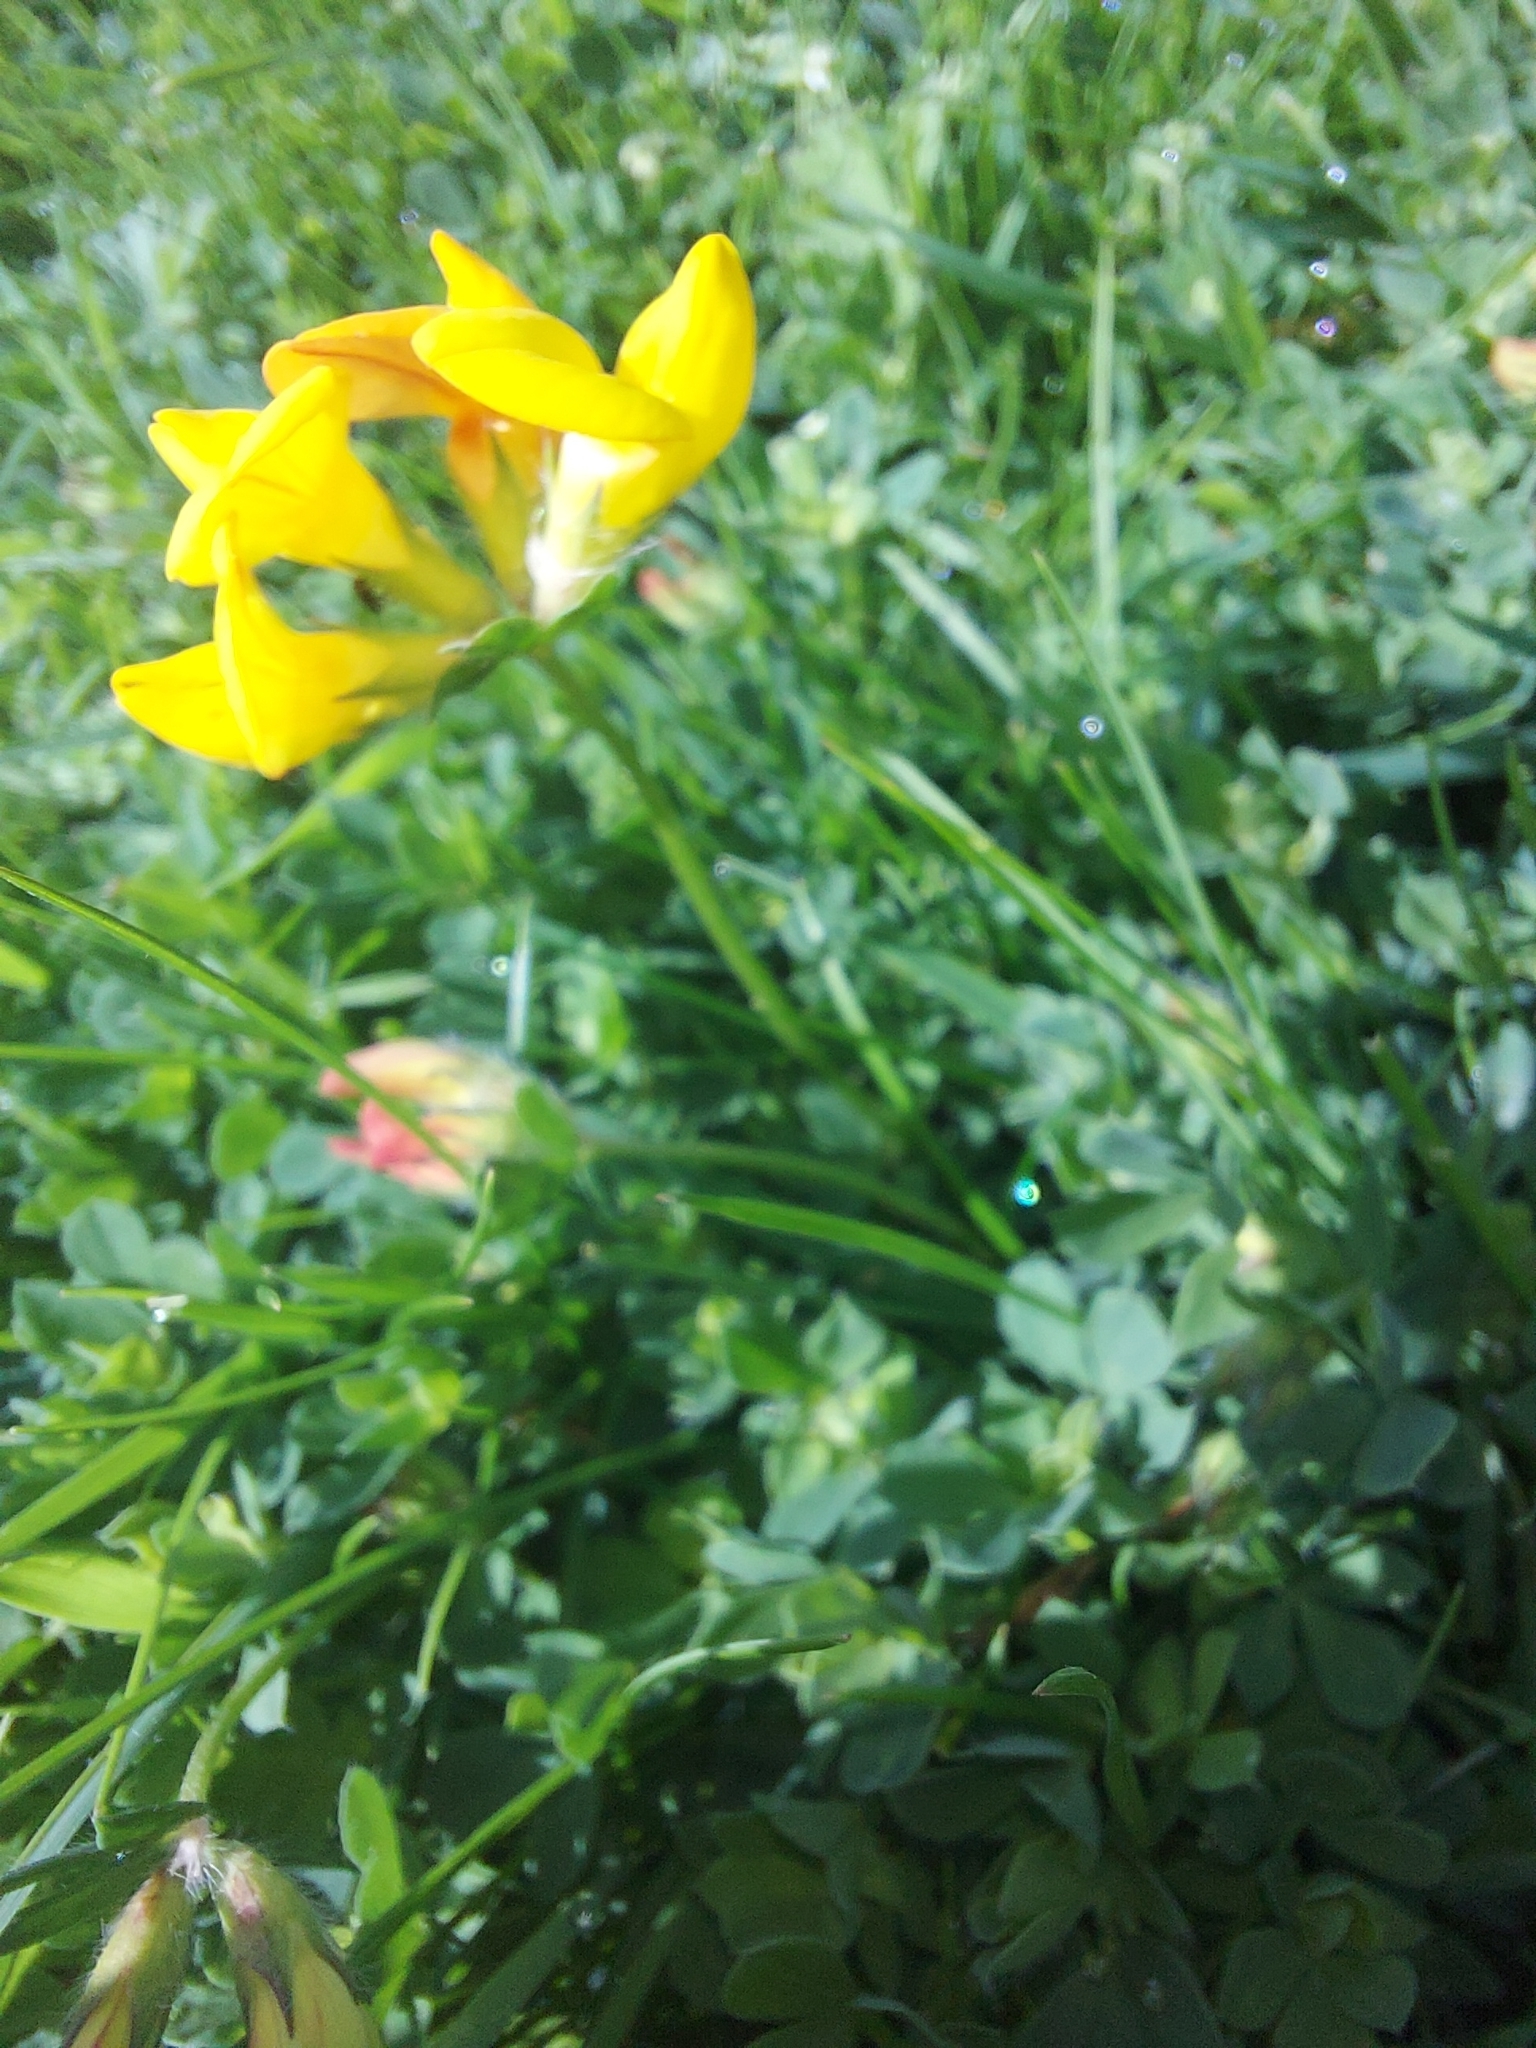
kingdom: Plantae
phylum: Tracheophyta
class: Magnoliopsida
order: Fabales
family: Fabaceae
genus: Lotus
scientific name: Lotus corniculatus
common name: Common bird's-foot-trefoil
